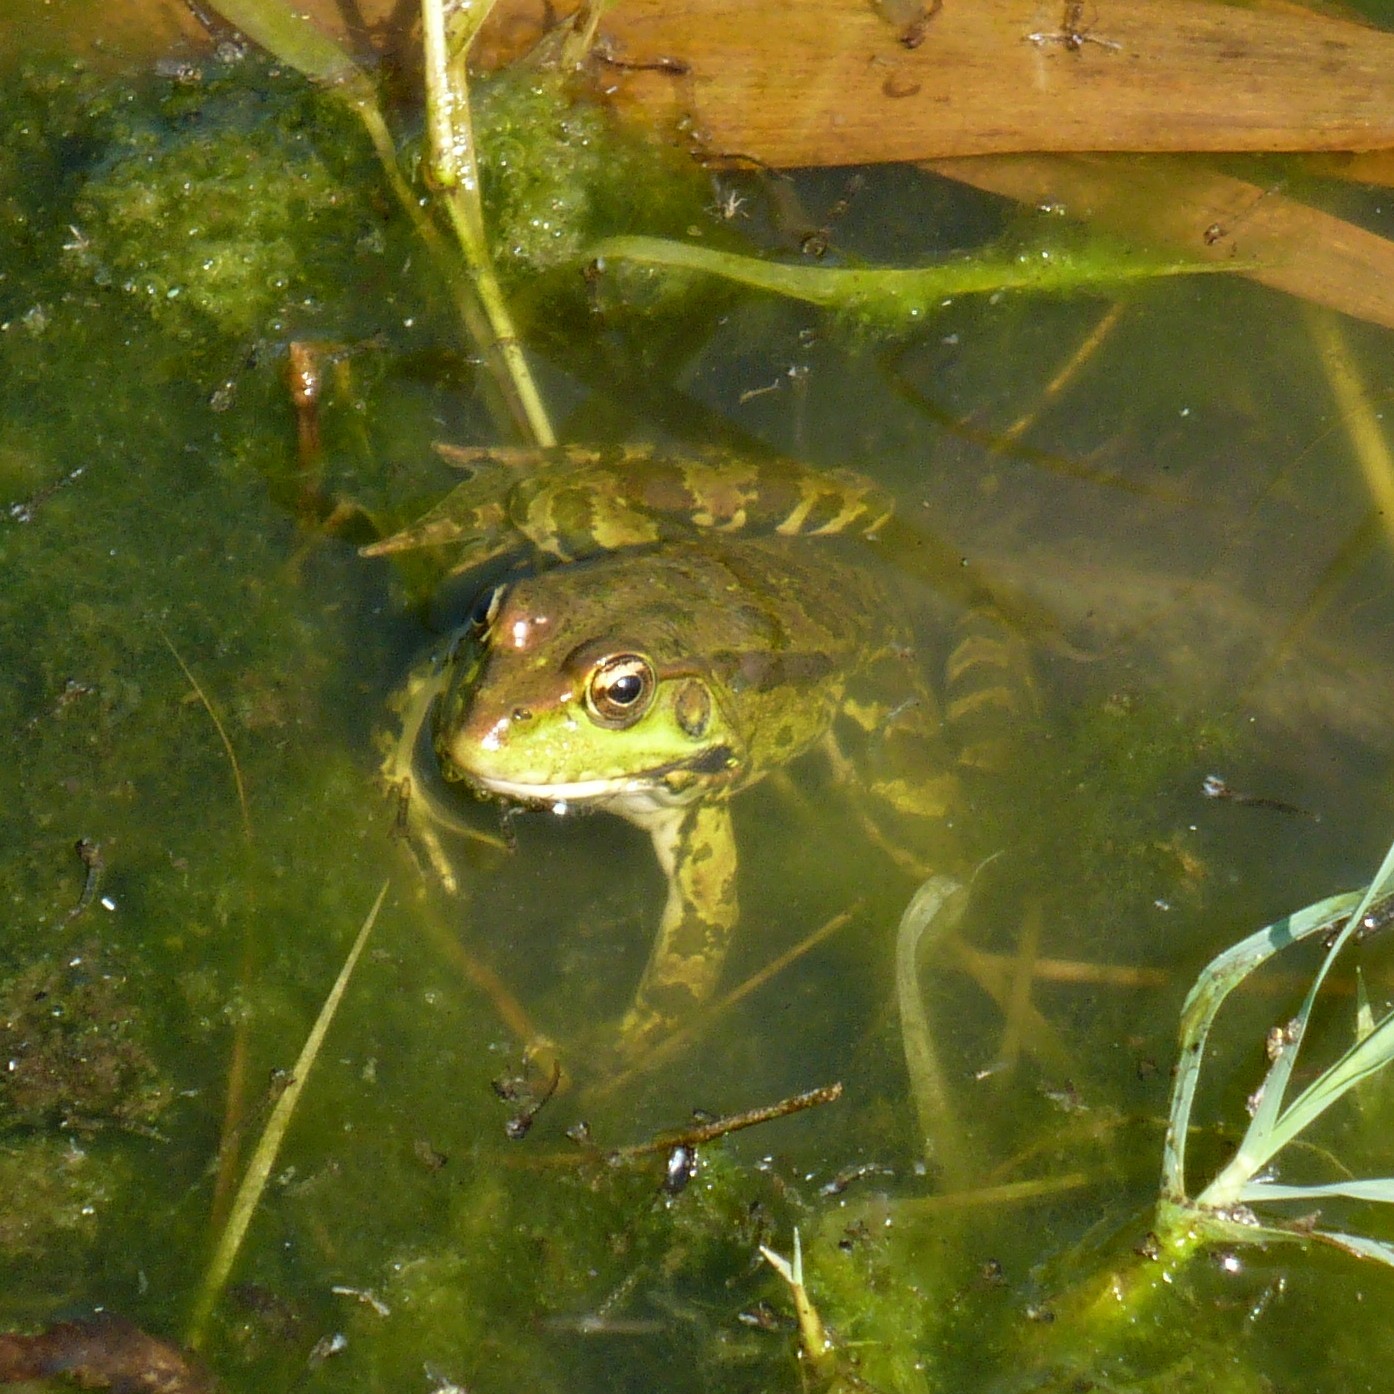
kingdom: Animalia
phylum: Chordata
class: Amphibia
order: Anura
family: Ranidae
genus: Pelophylax
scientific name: Pelophylax ridibundus
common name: Marsh frog
